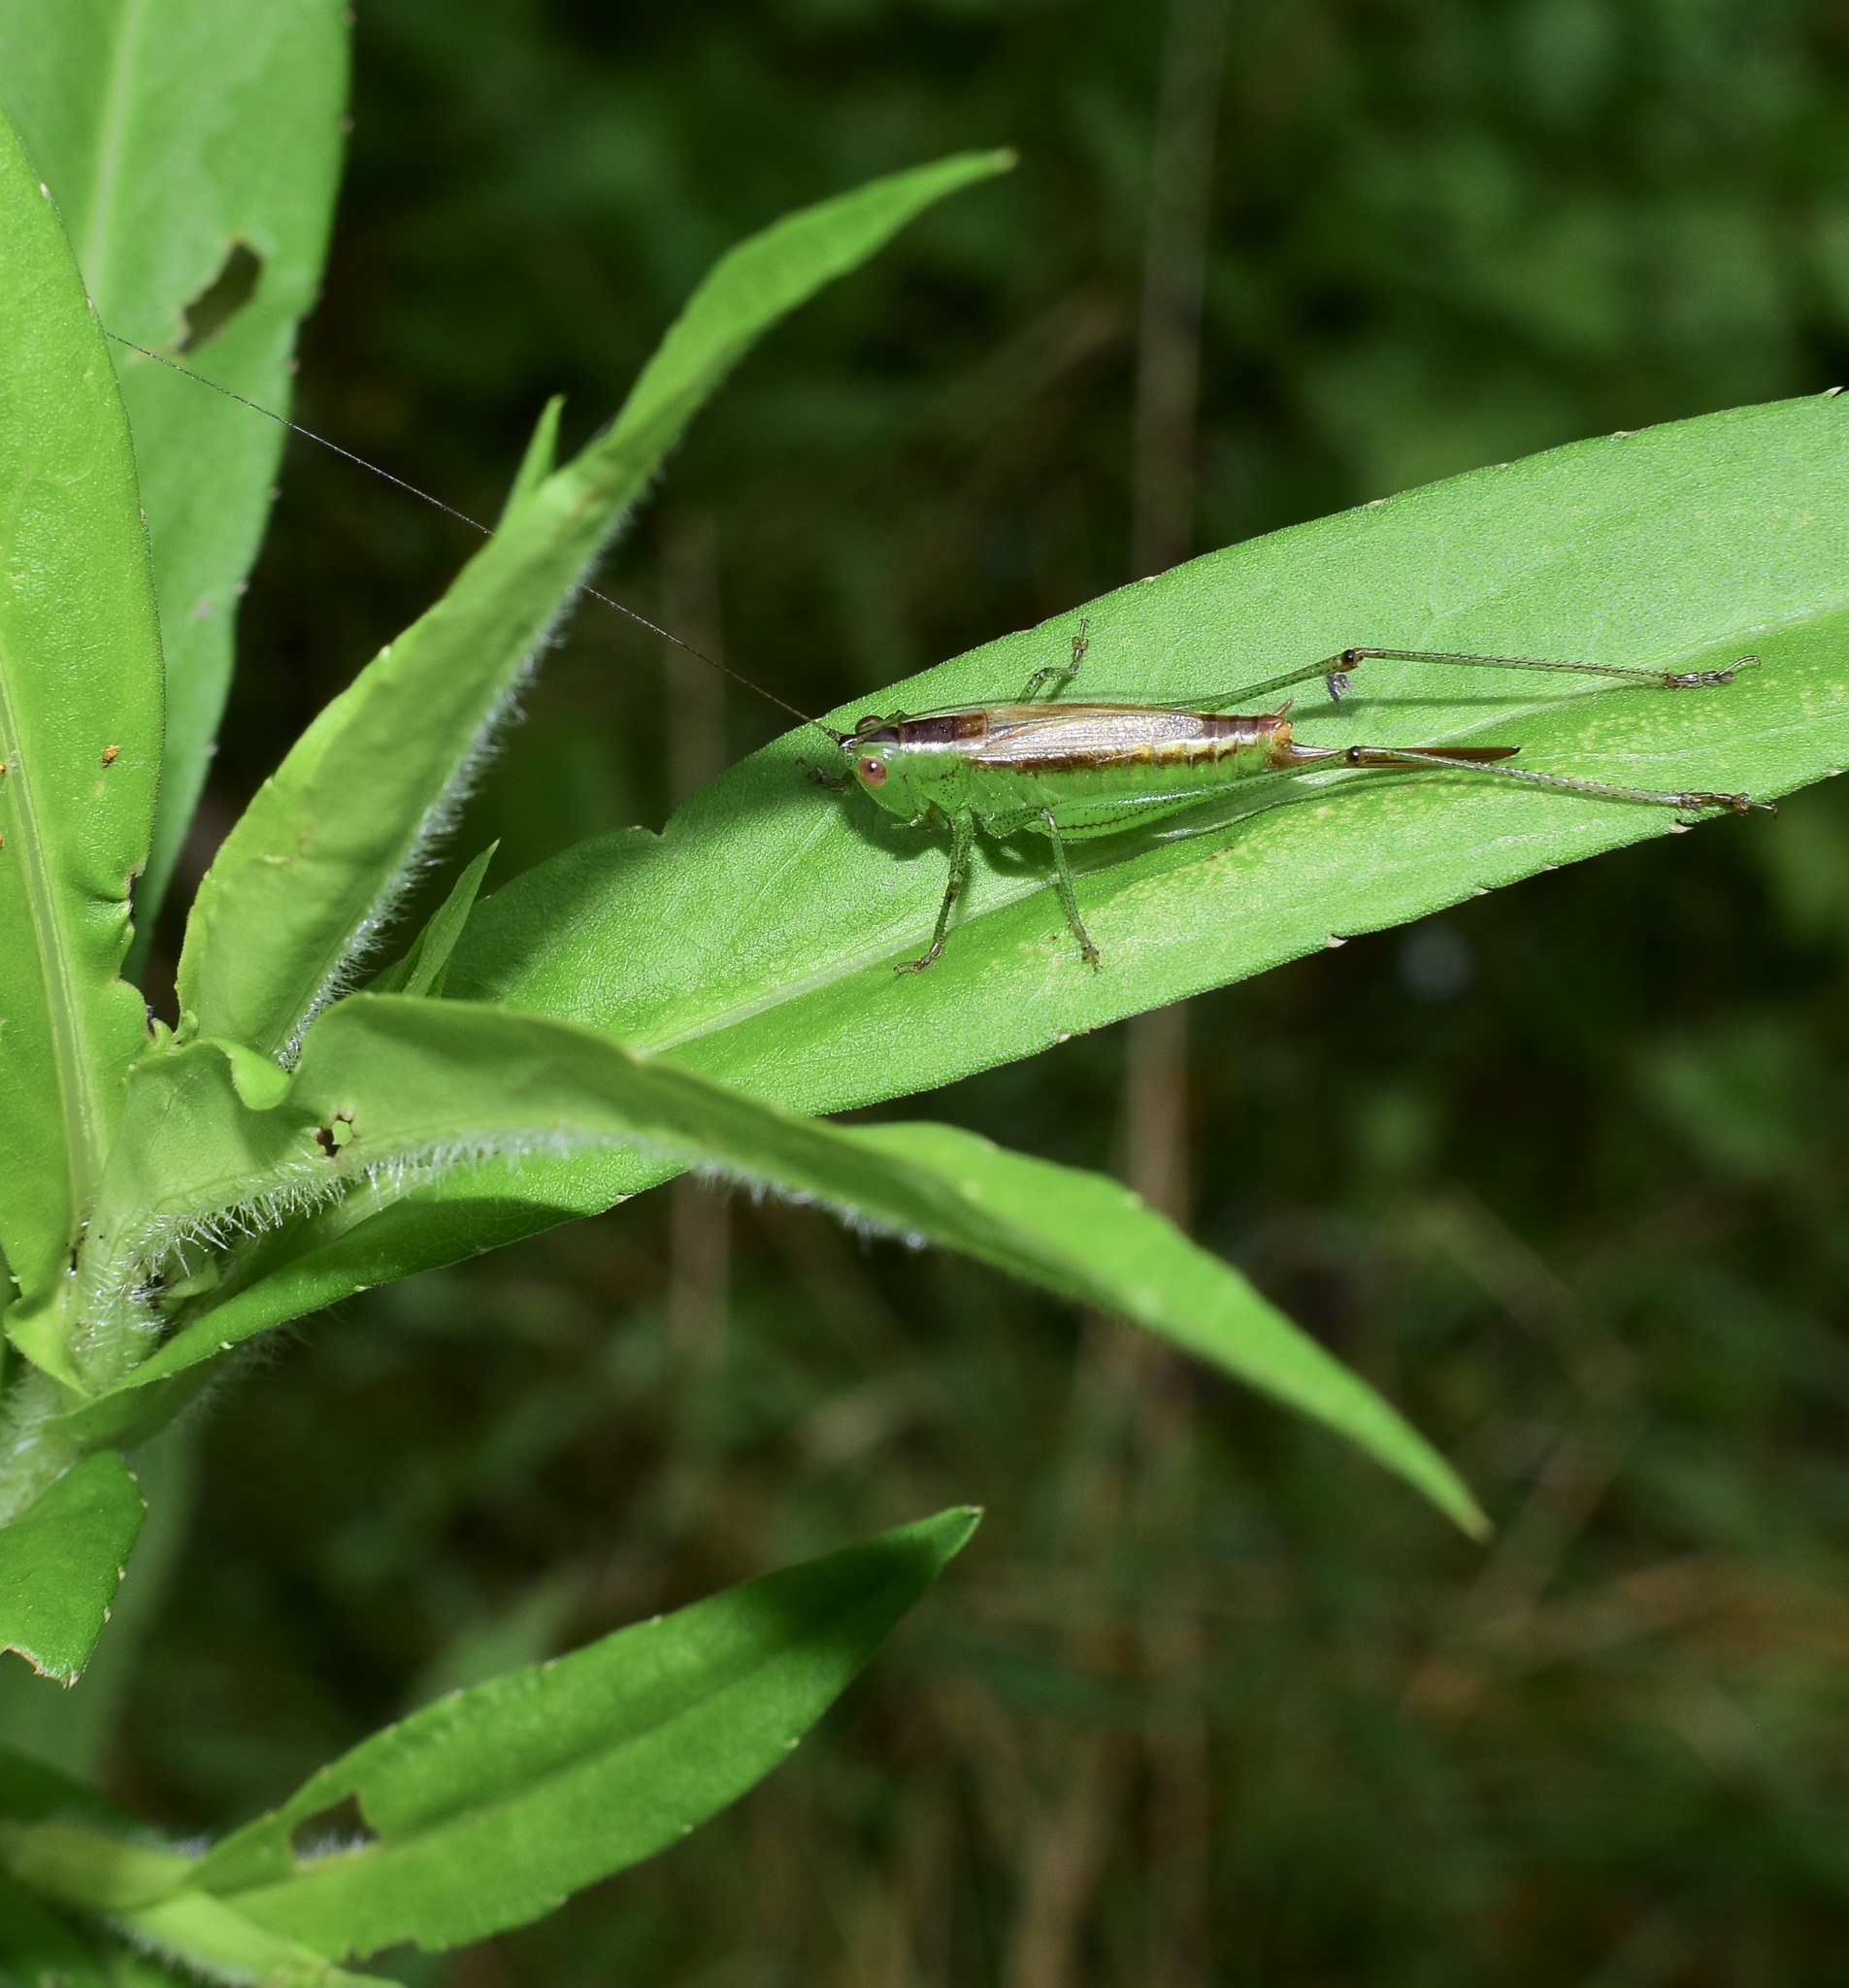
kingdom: Animalia
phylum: Arthropoda
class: Insecta
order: Orthoptera
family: Tettigoniidae
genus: Conocephalus
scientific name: Conocephalus brevipennis
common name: Short-winged meadow katydid
